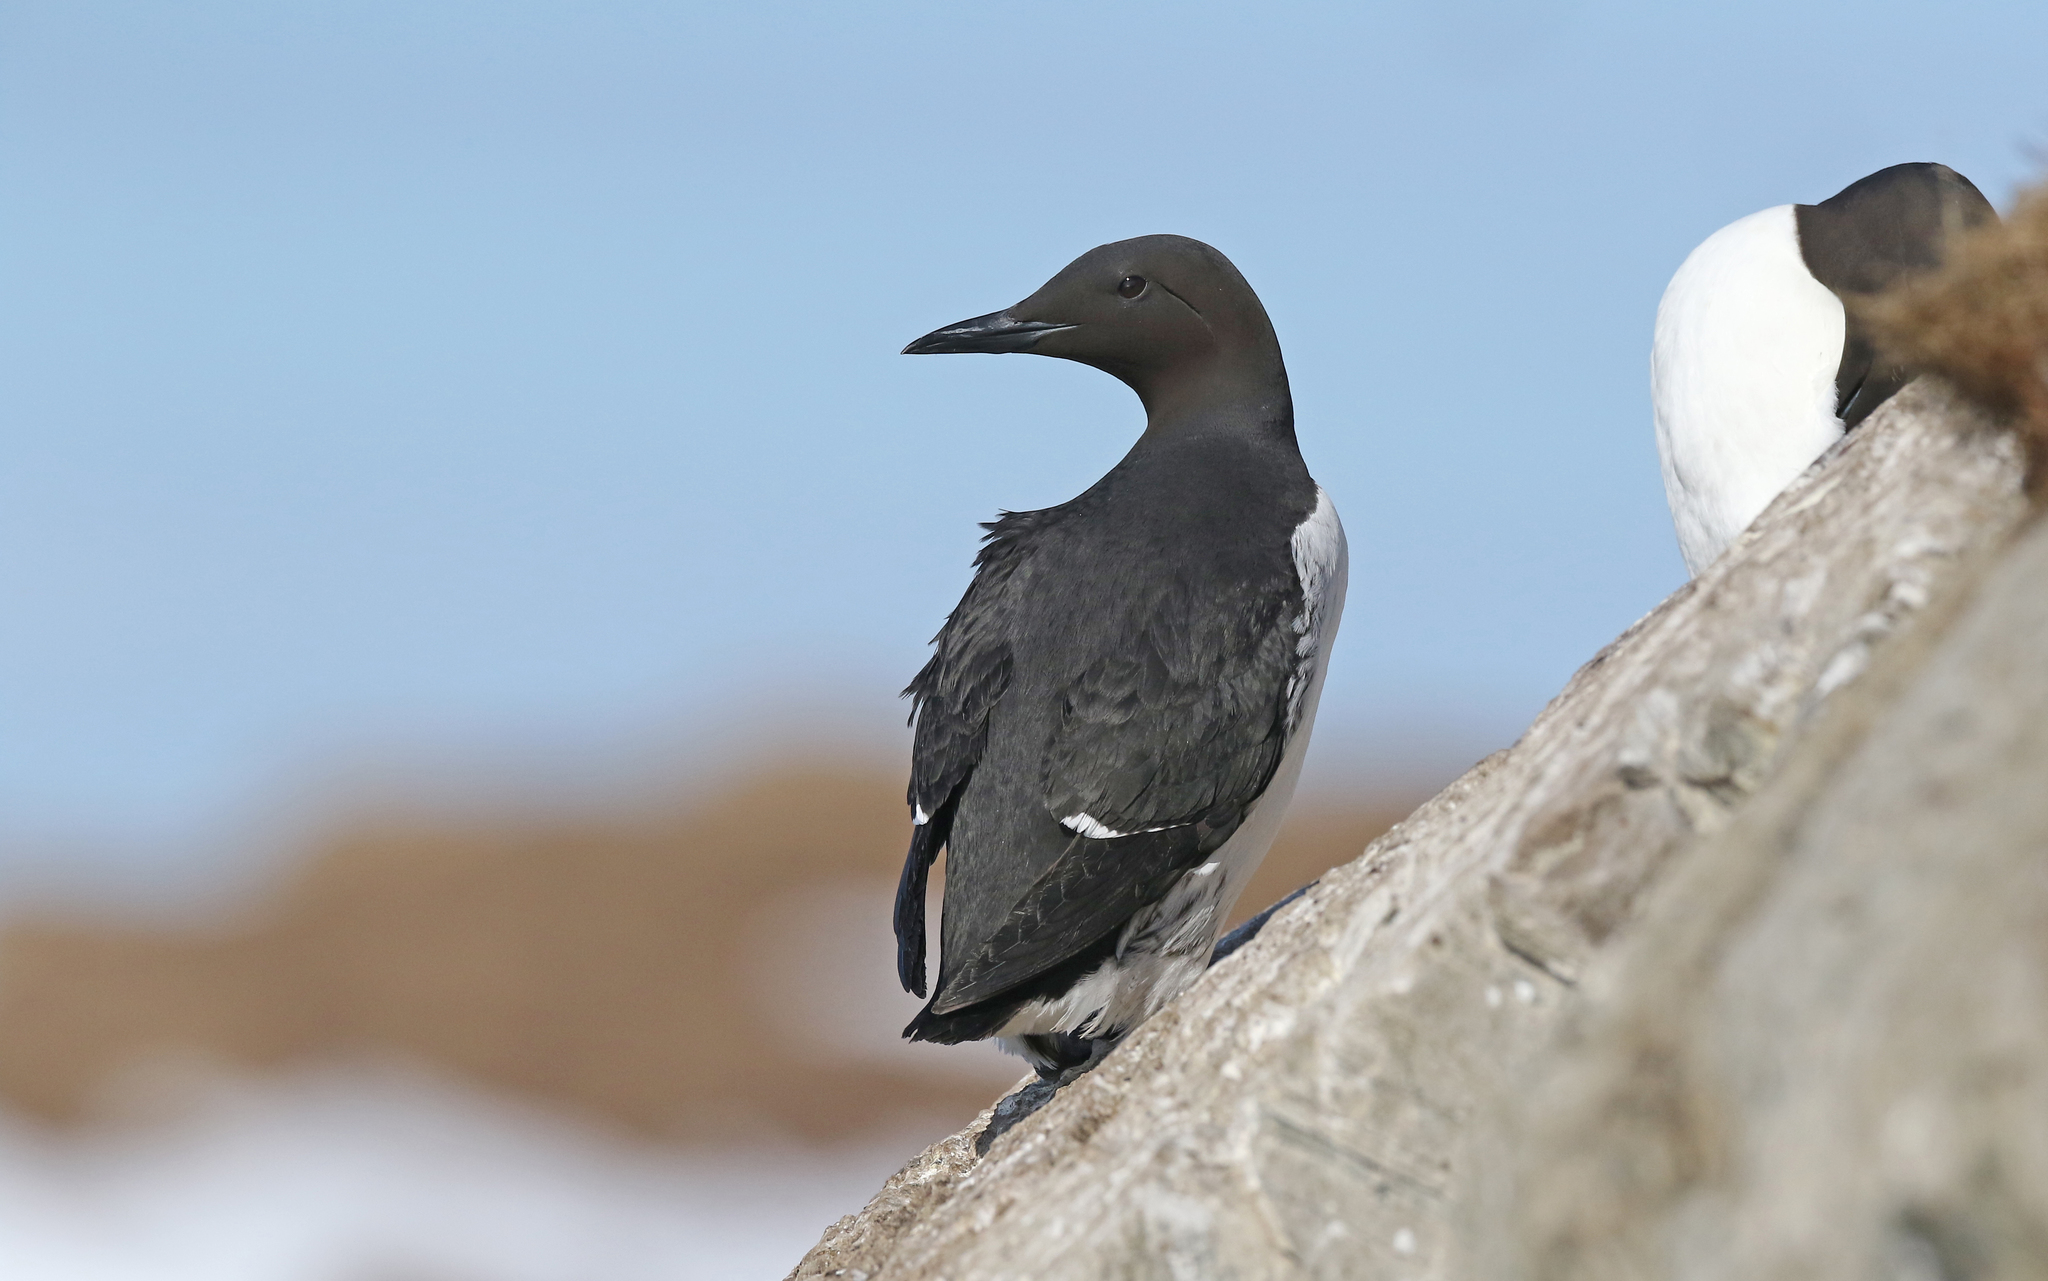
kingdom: Animalia
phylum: Chordata
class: Aves
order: Charadriiformes
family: Alcidae
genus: Uria
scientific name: Uria aalge
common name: Common murre
